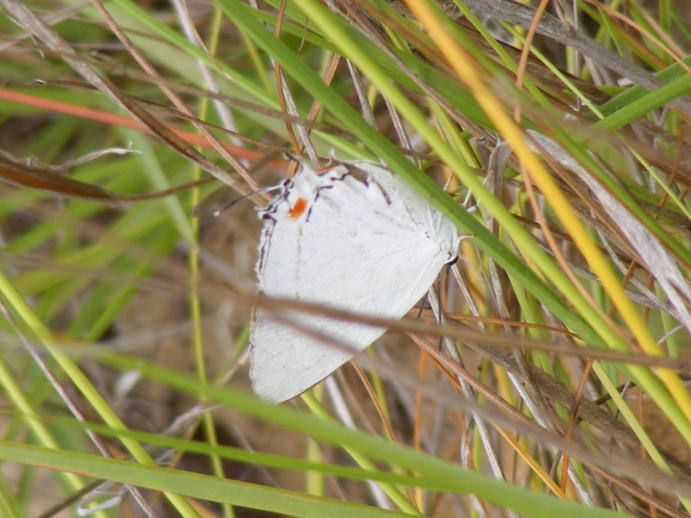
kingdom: Animalia
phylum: Arthropoda
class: Insecta
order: Lepidoptera
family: Lycaenidae
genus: Argiolaus
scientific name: Argiolaus silas
